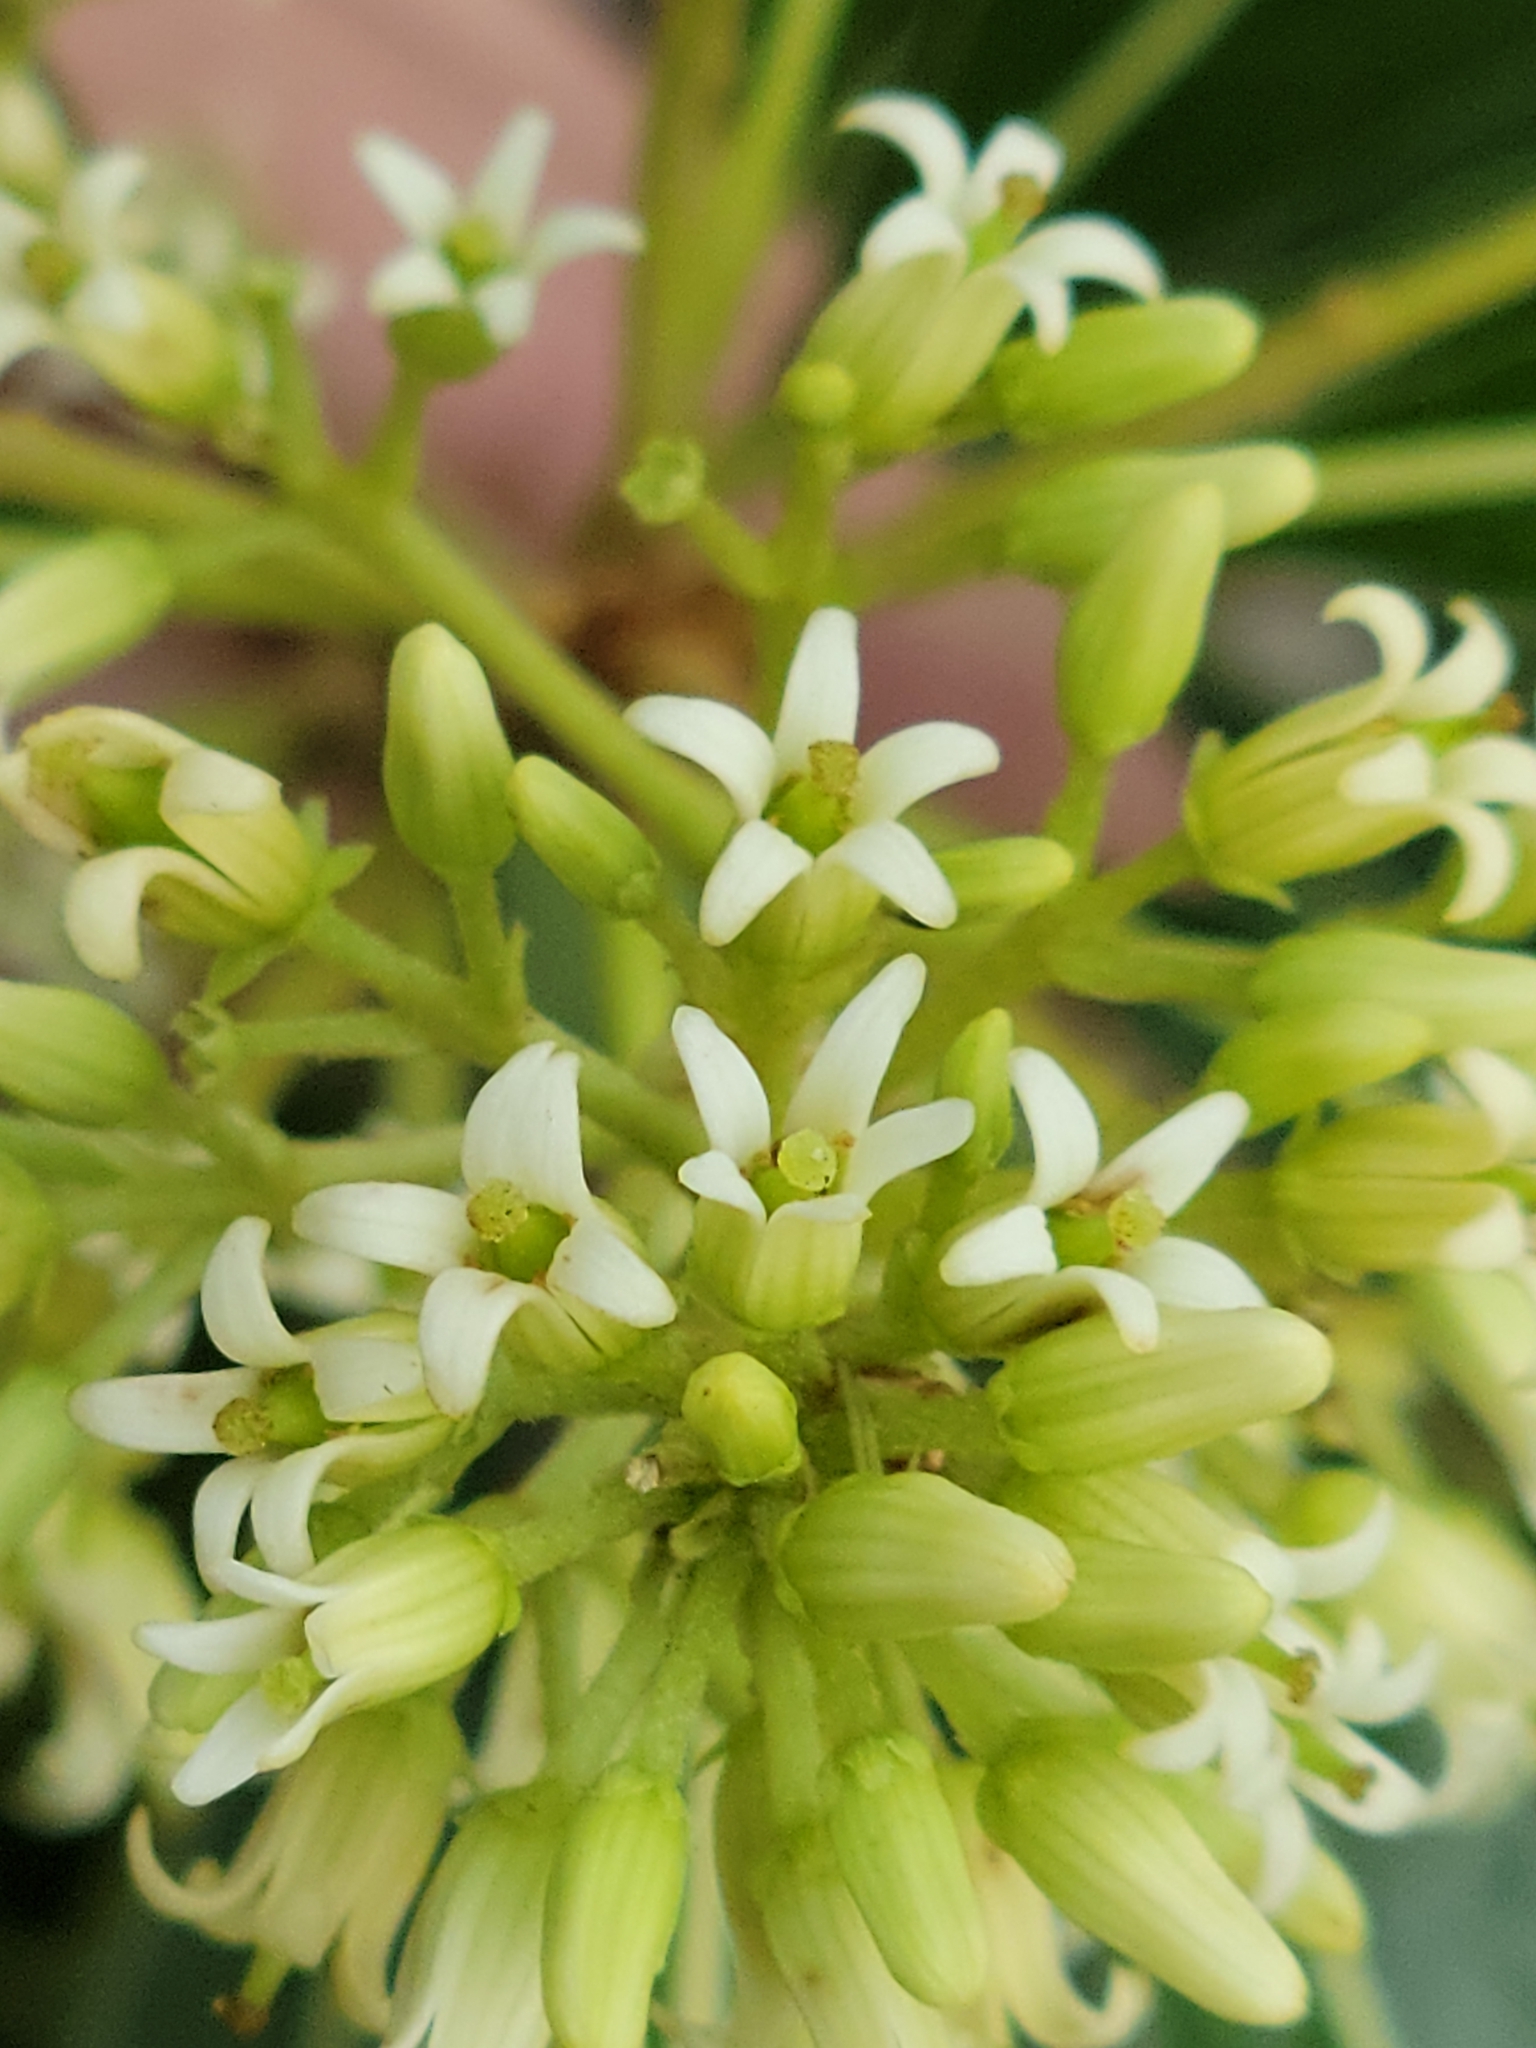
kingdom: Plantae
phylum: Tracheophyta
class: Magnoliopsida
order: Apiales
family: Pittosporaceae
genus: Pittosporum
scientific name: Pittosporum pentandrum
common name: Taiwanese cheesewood
